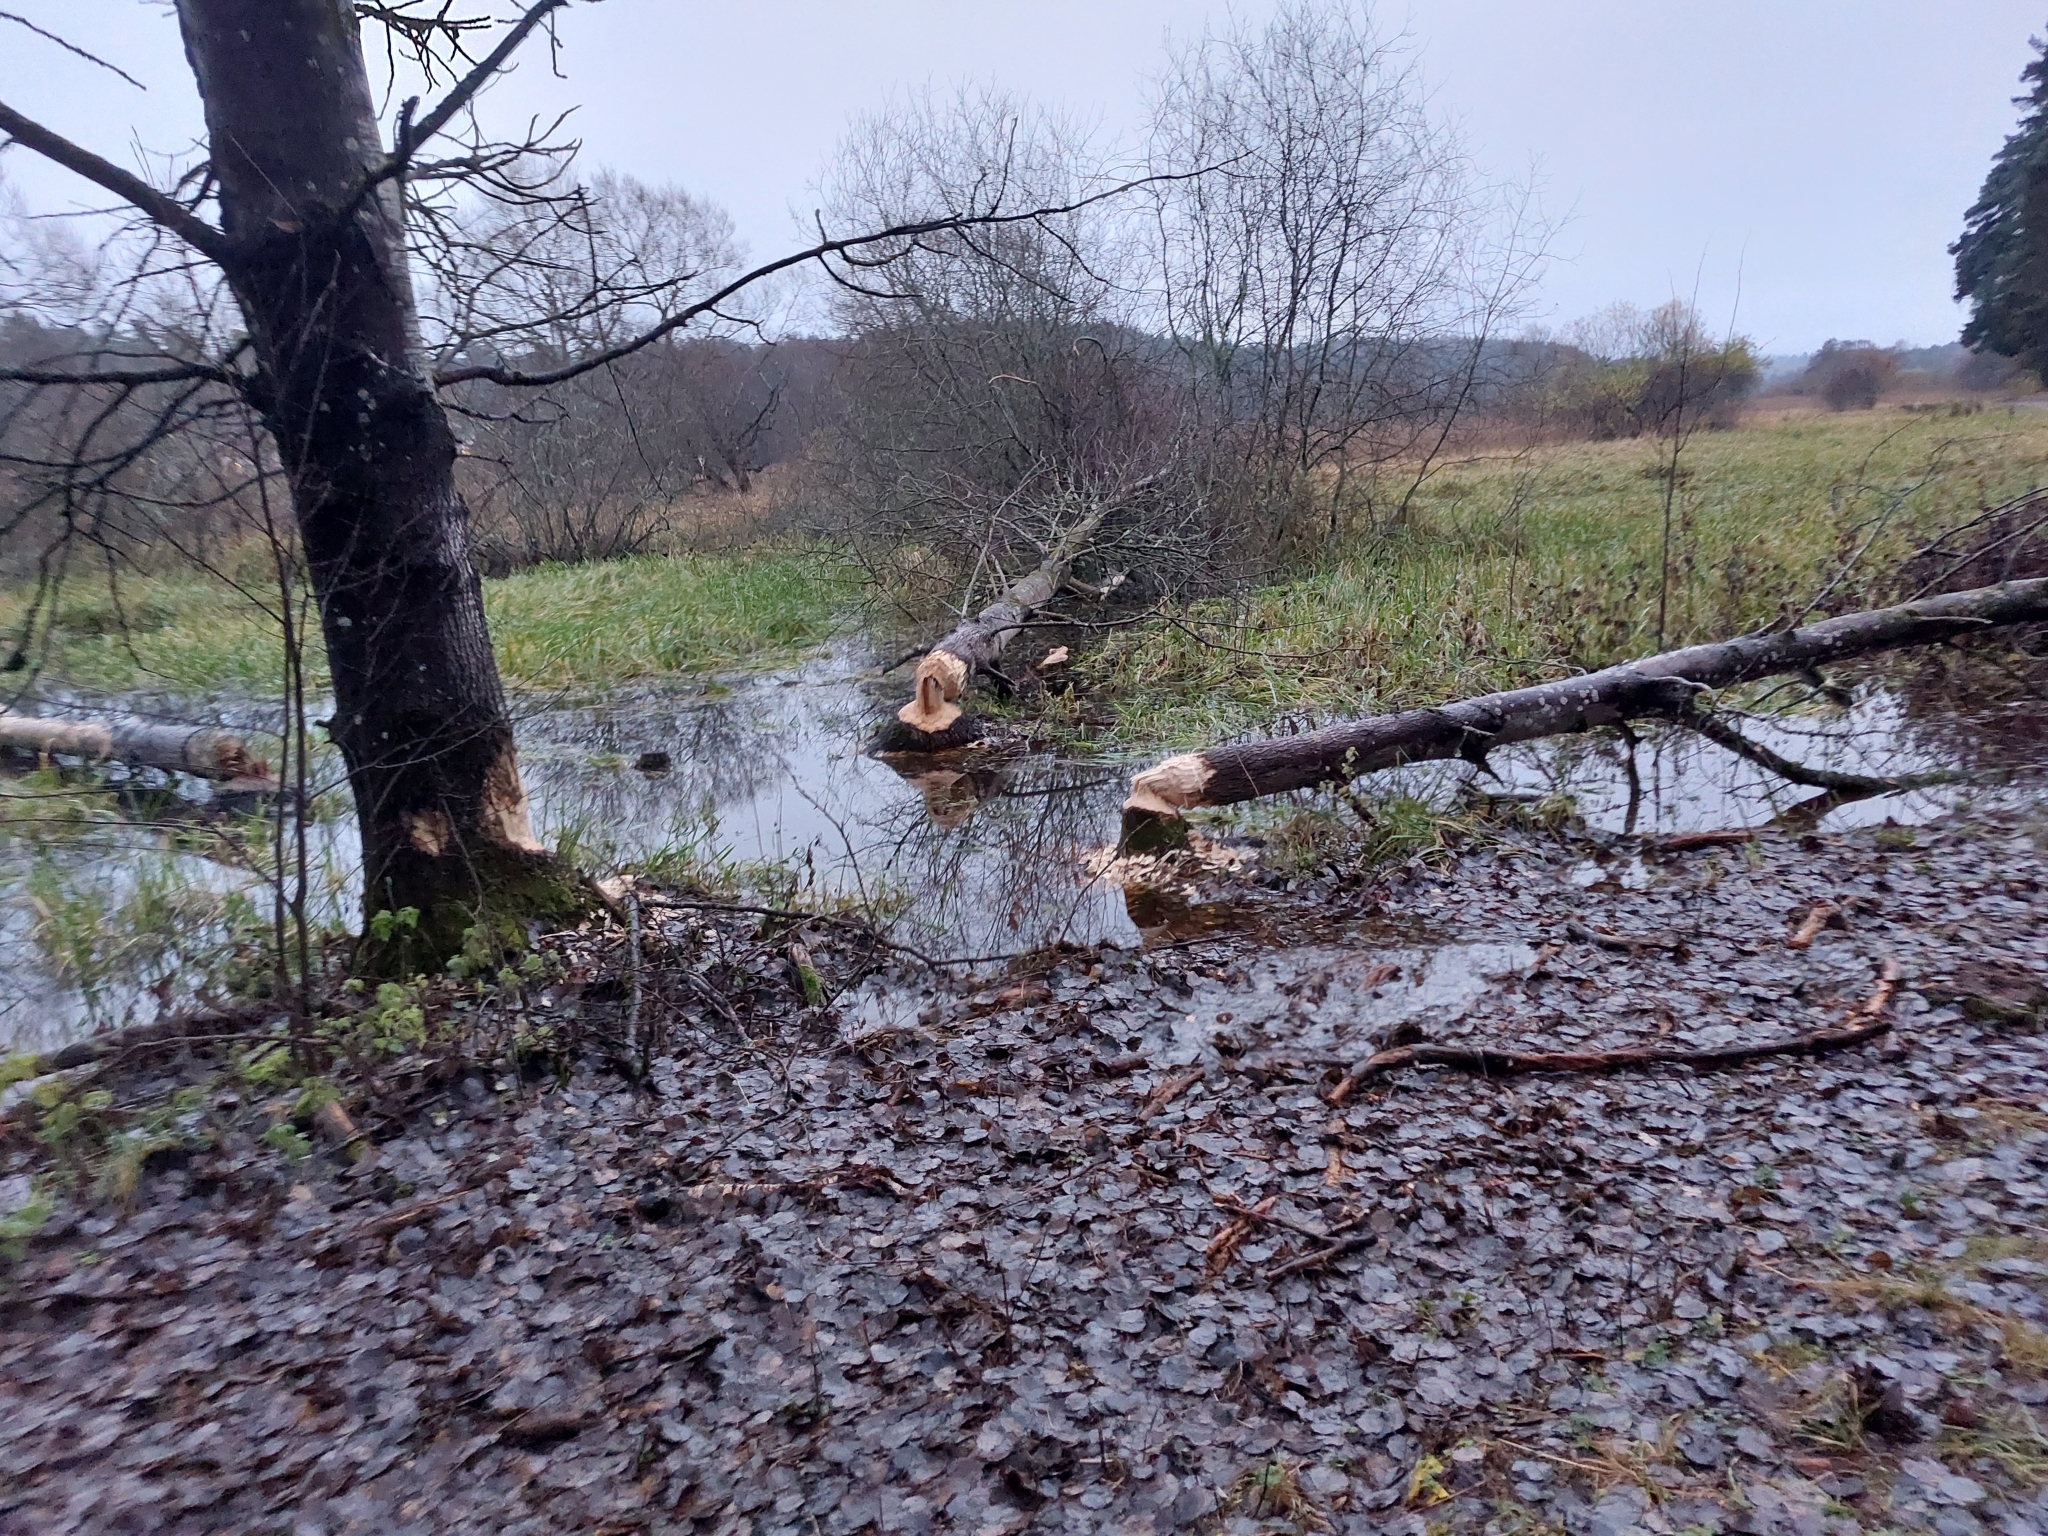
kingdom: Animalia
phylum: Chordata
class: Mammalia
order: Rodentia
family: Castoridae
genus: Castor
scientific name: Castor fiber
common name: Eurasian beaver
